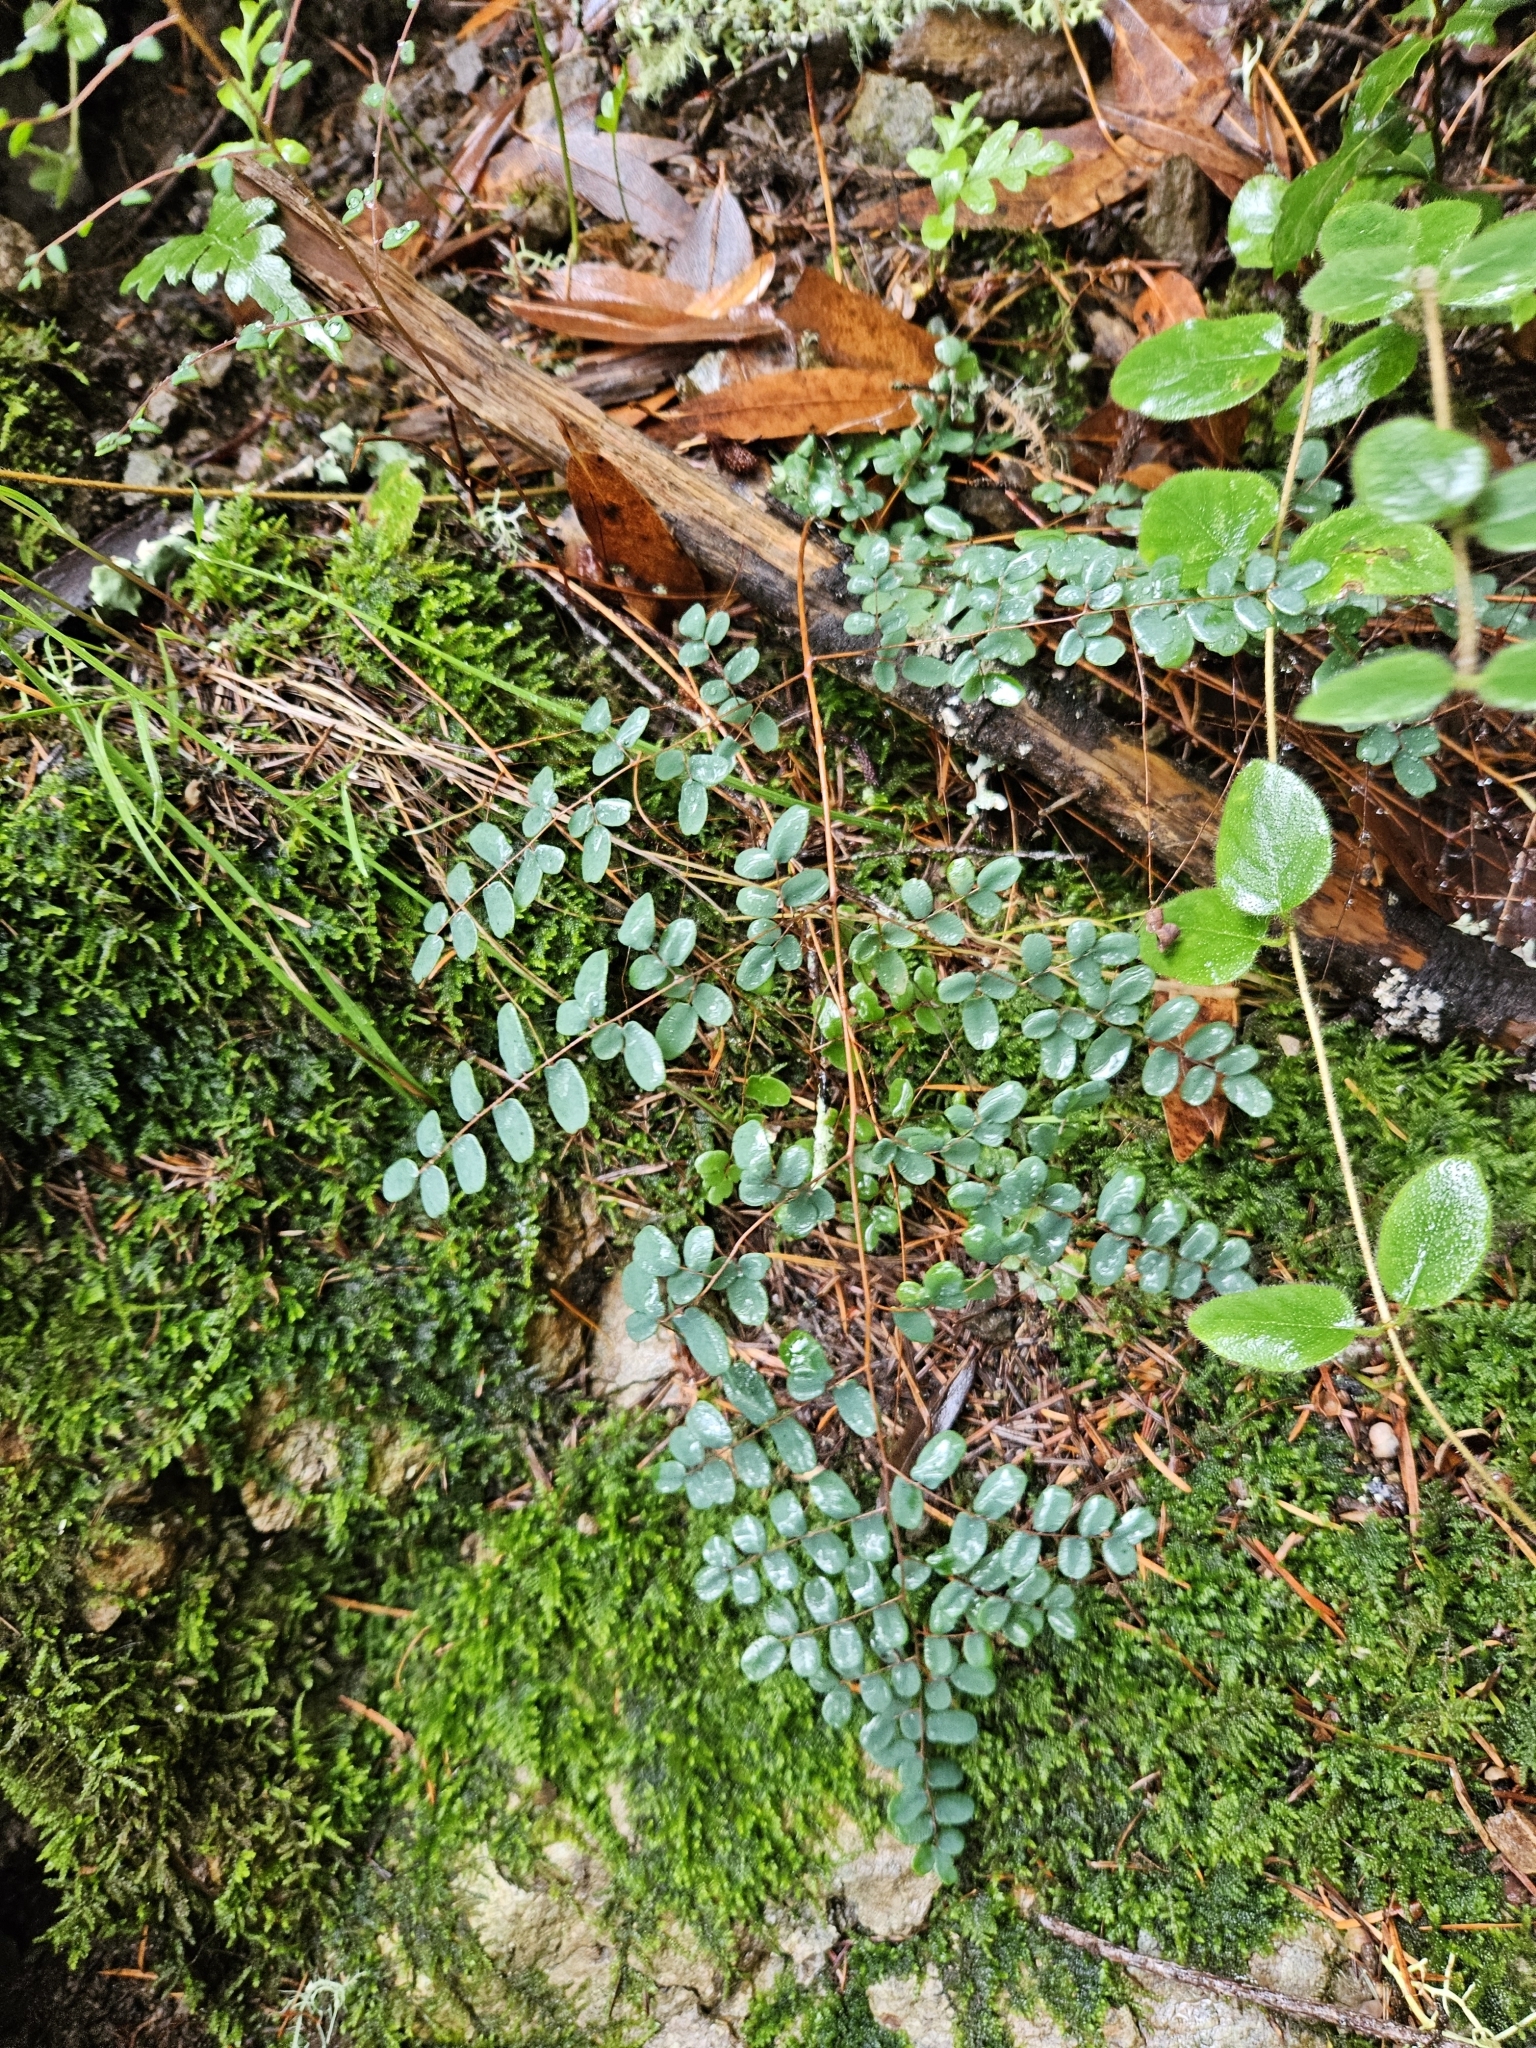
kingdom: Plantae
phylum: Tracheophyta
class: Polypodiopsida
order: Polypodiales
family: Pteridaceae
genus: Pellaea
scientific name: Pellaea andromedifolia
